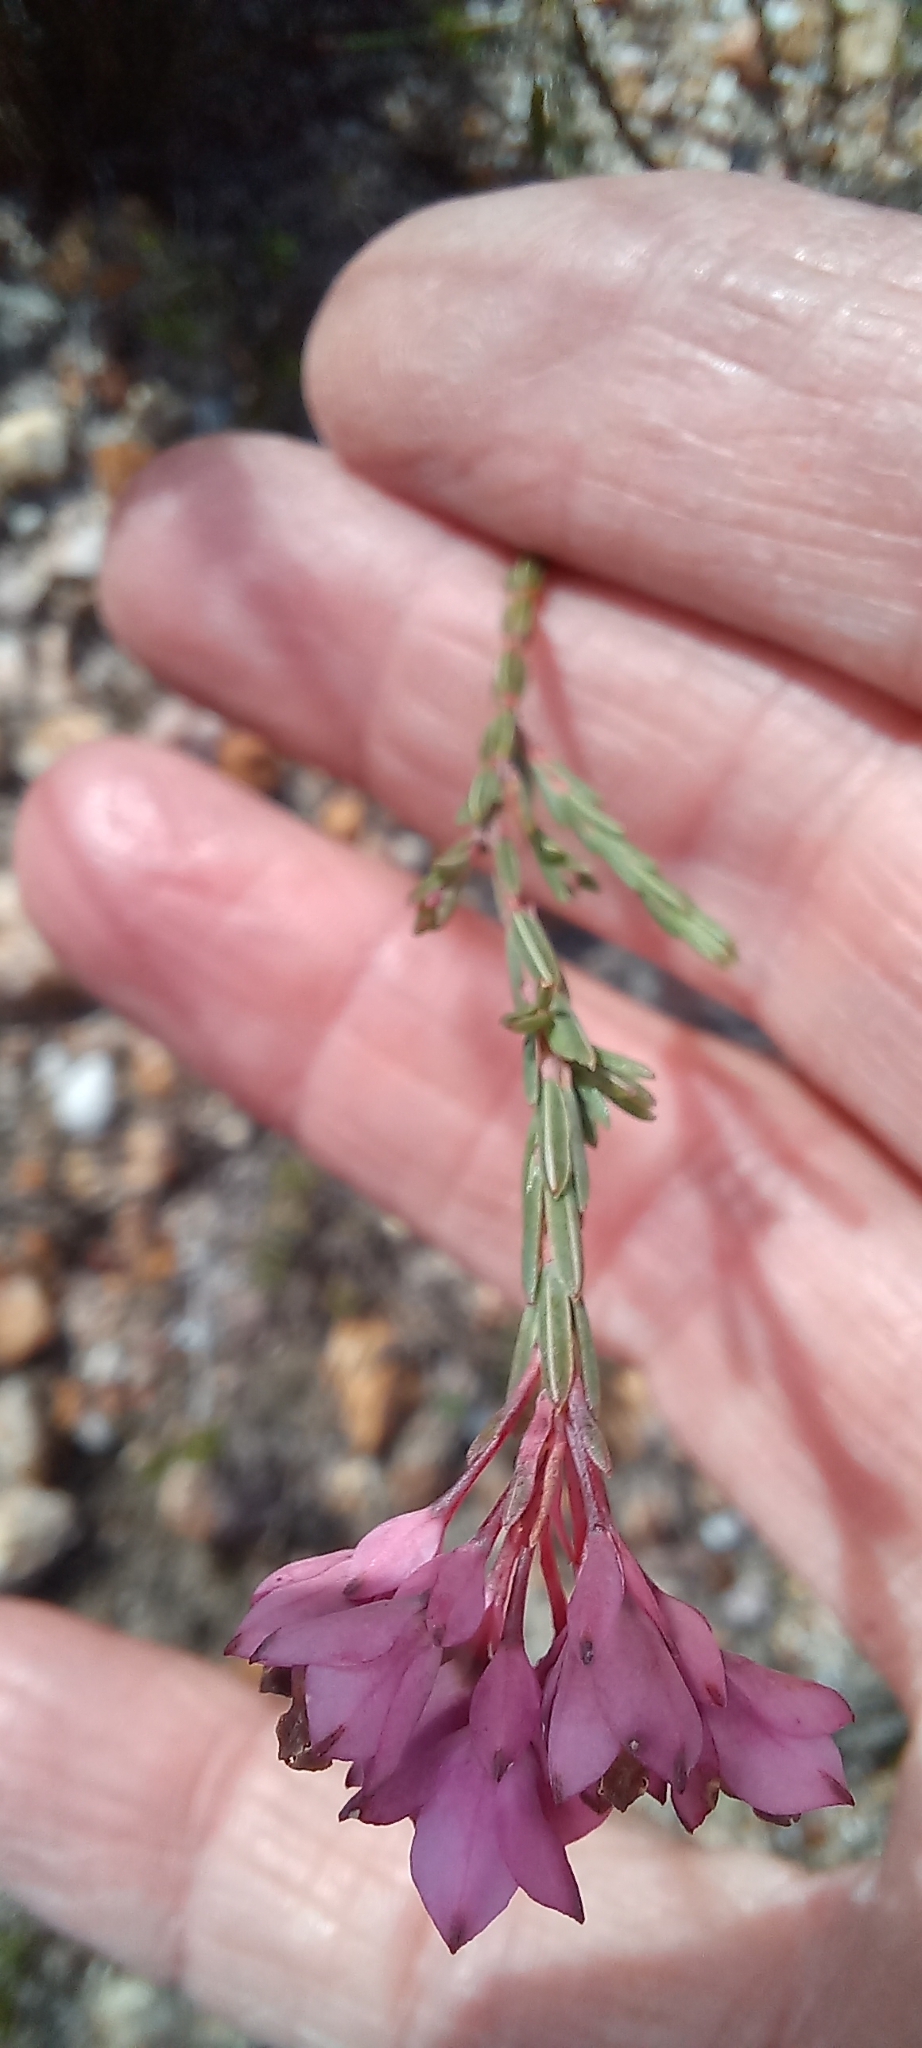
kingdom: Plantae
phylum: Tracheophyta
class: Magnoliopsida
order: Ericales
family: Ericaceae
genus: Erica
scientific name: Erica taxifolia
